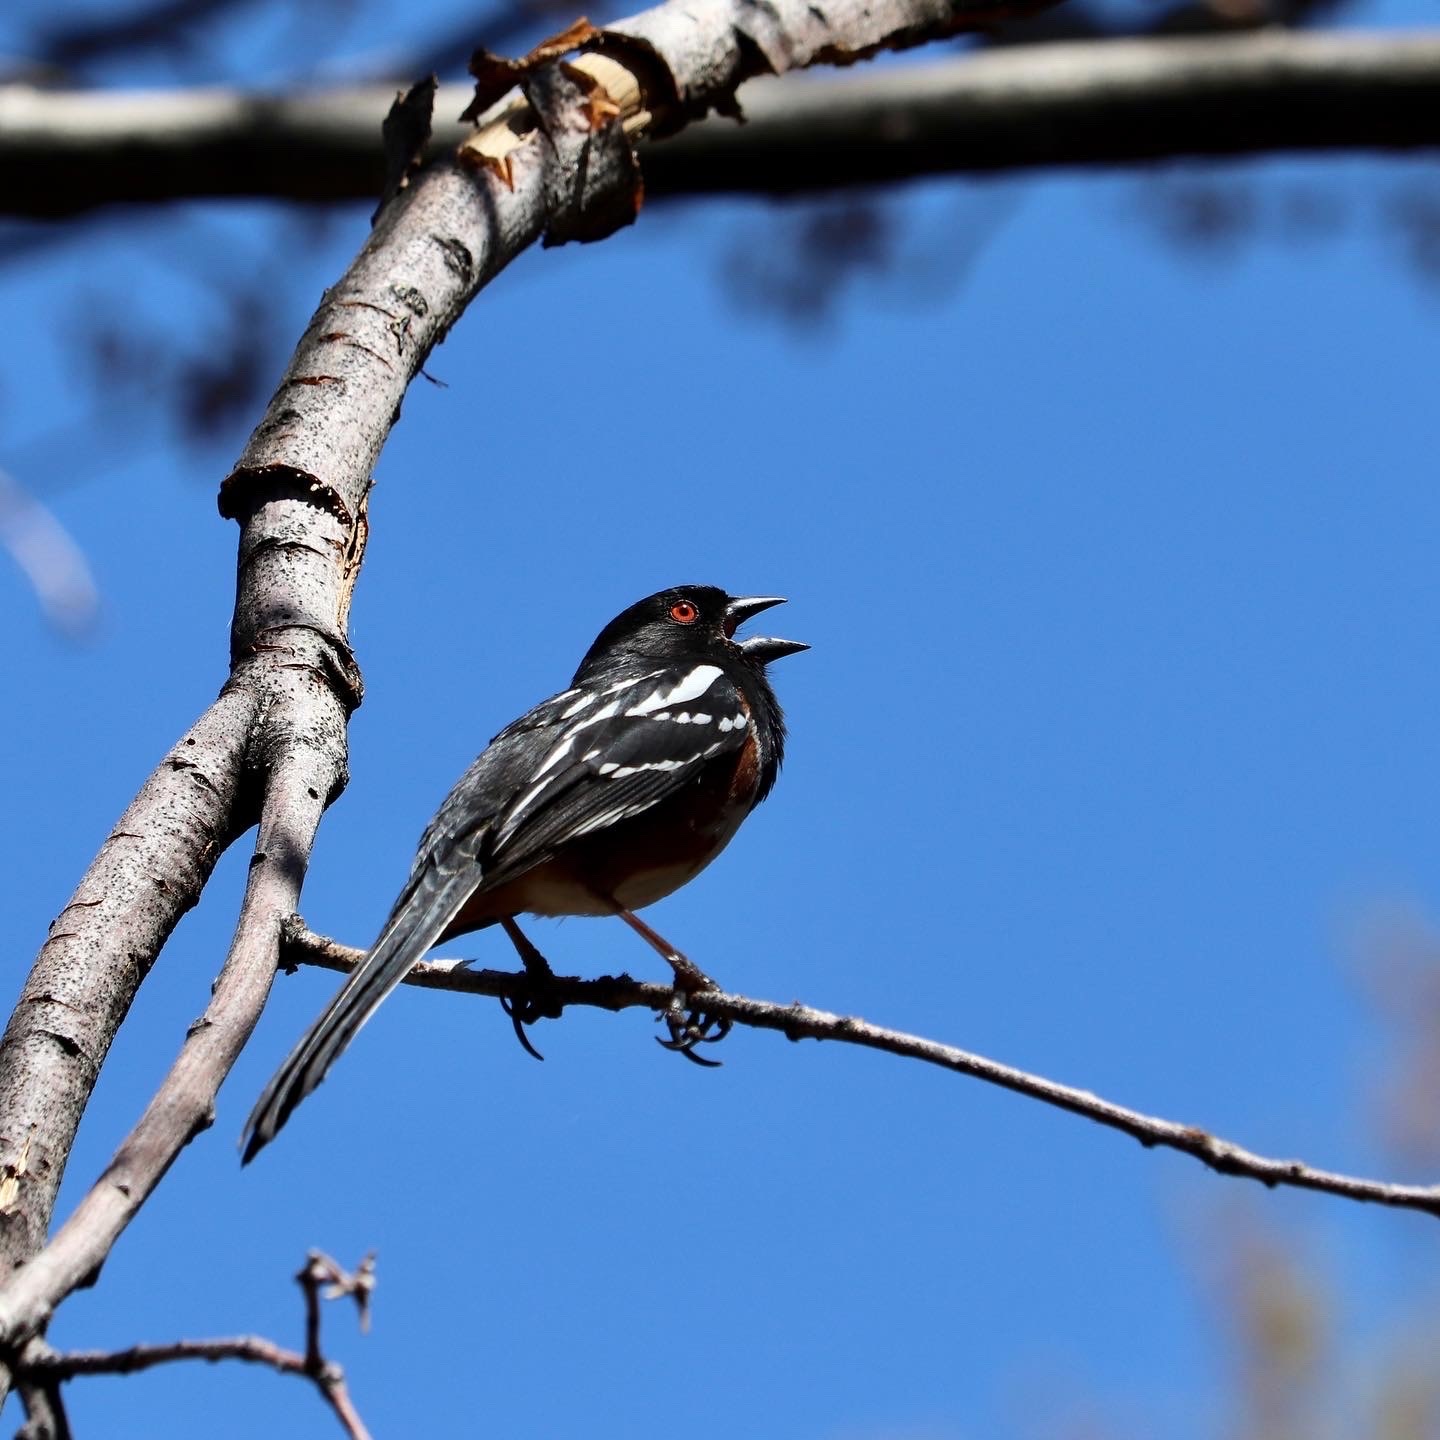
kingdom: Animalia
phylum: Chordata
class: Aves
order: Passeriformes
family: Passerellidae
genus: Pipilo
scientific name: Pipilo maculatus
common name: Spotted towhee
